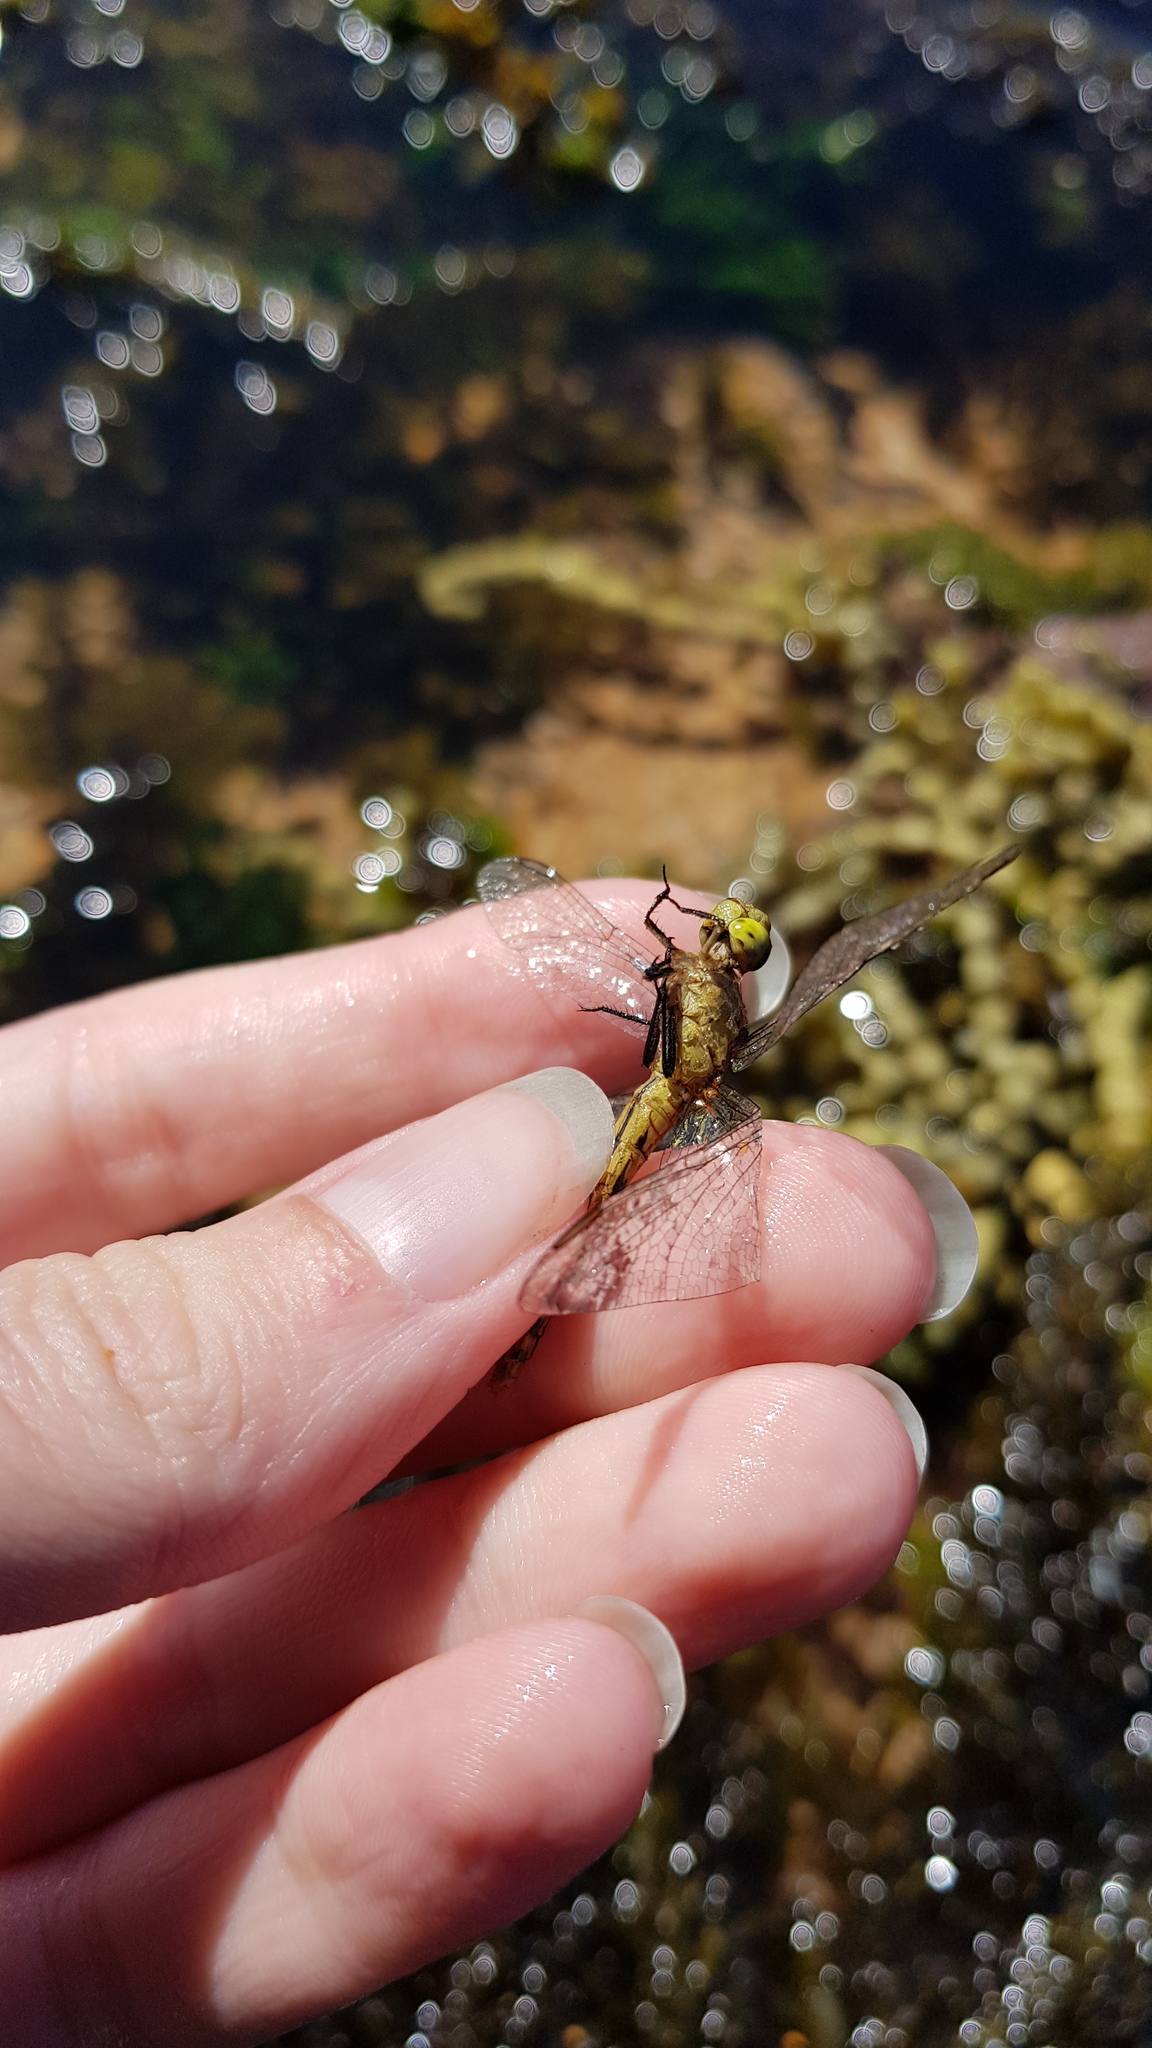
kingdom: Animalia
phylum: Arthropoda
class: Insecta
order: Odonata
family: Libellulidae
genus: Diplacodes
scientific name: Diplacodes melanopsis
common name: Black-faced percher
